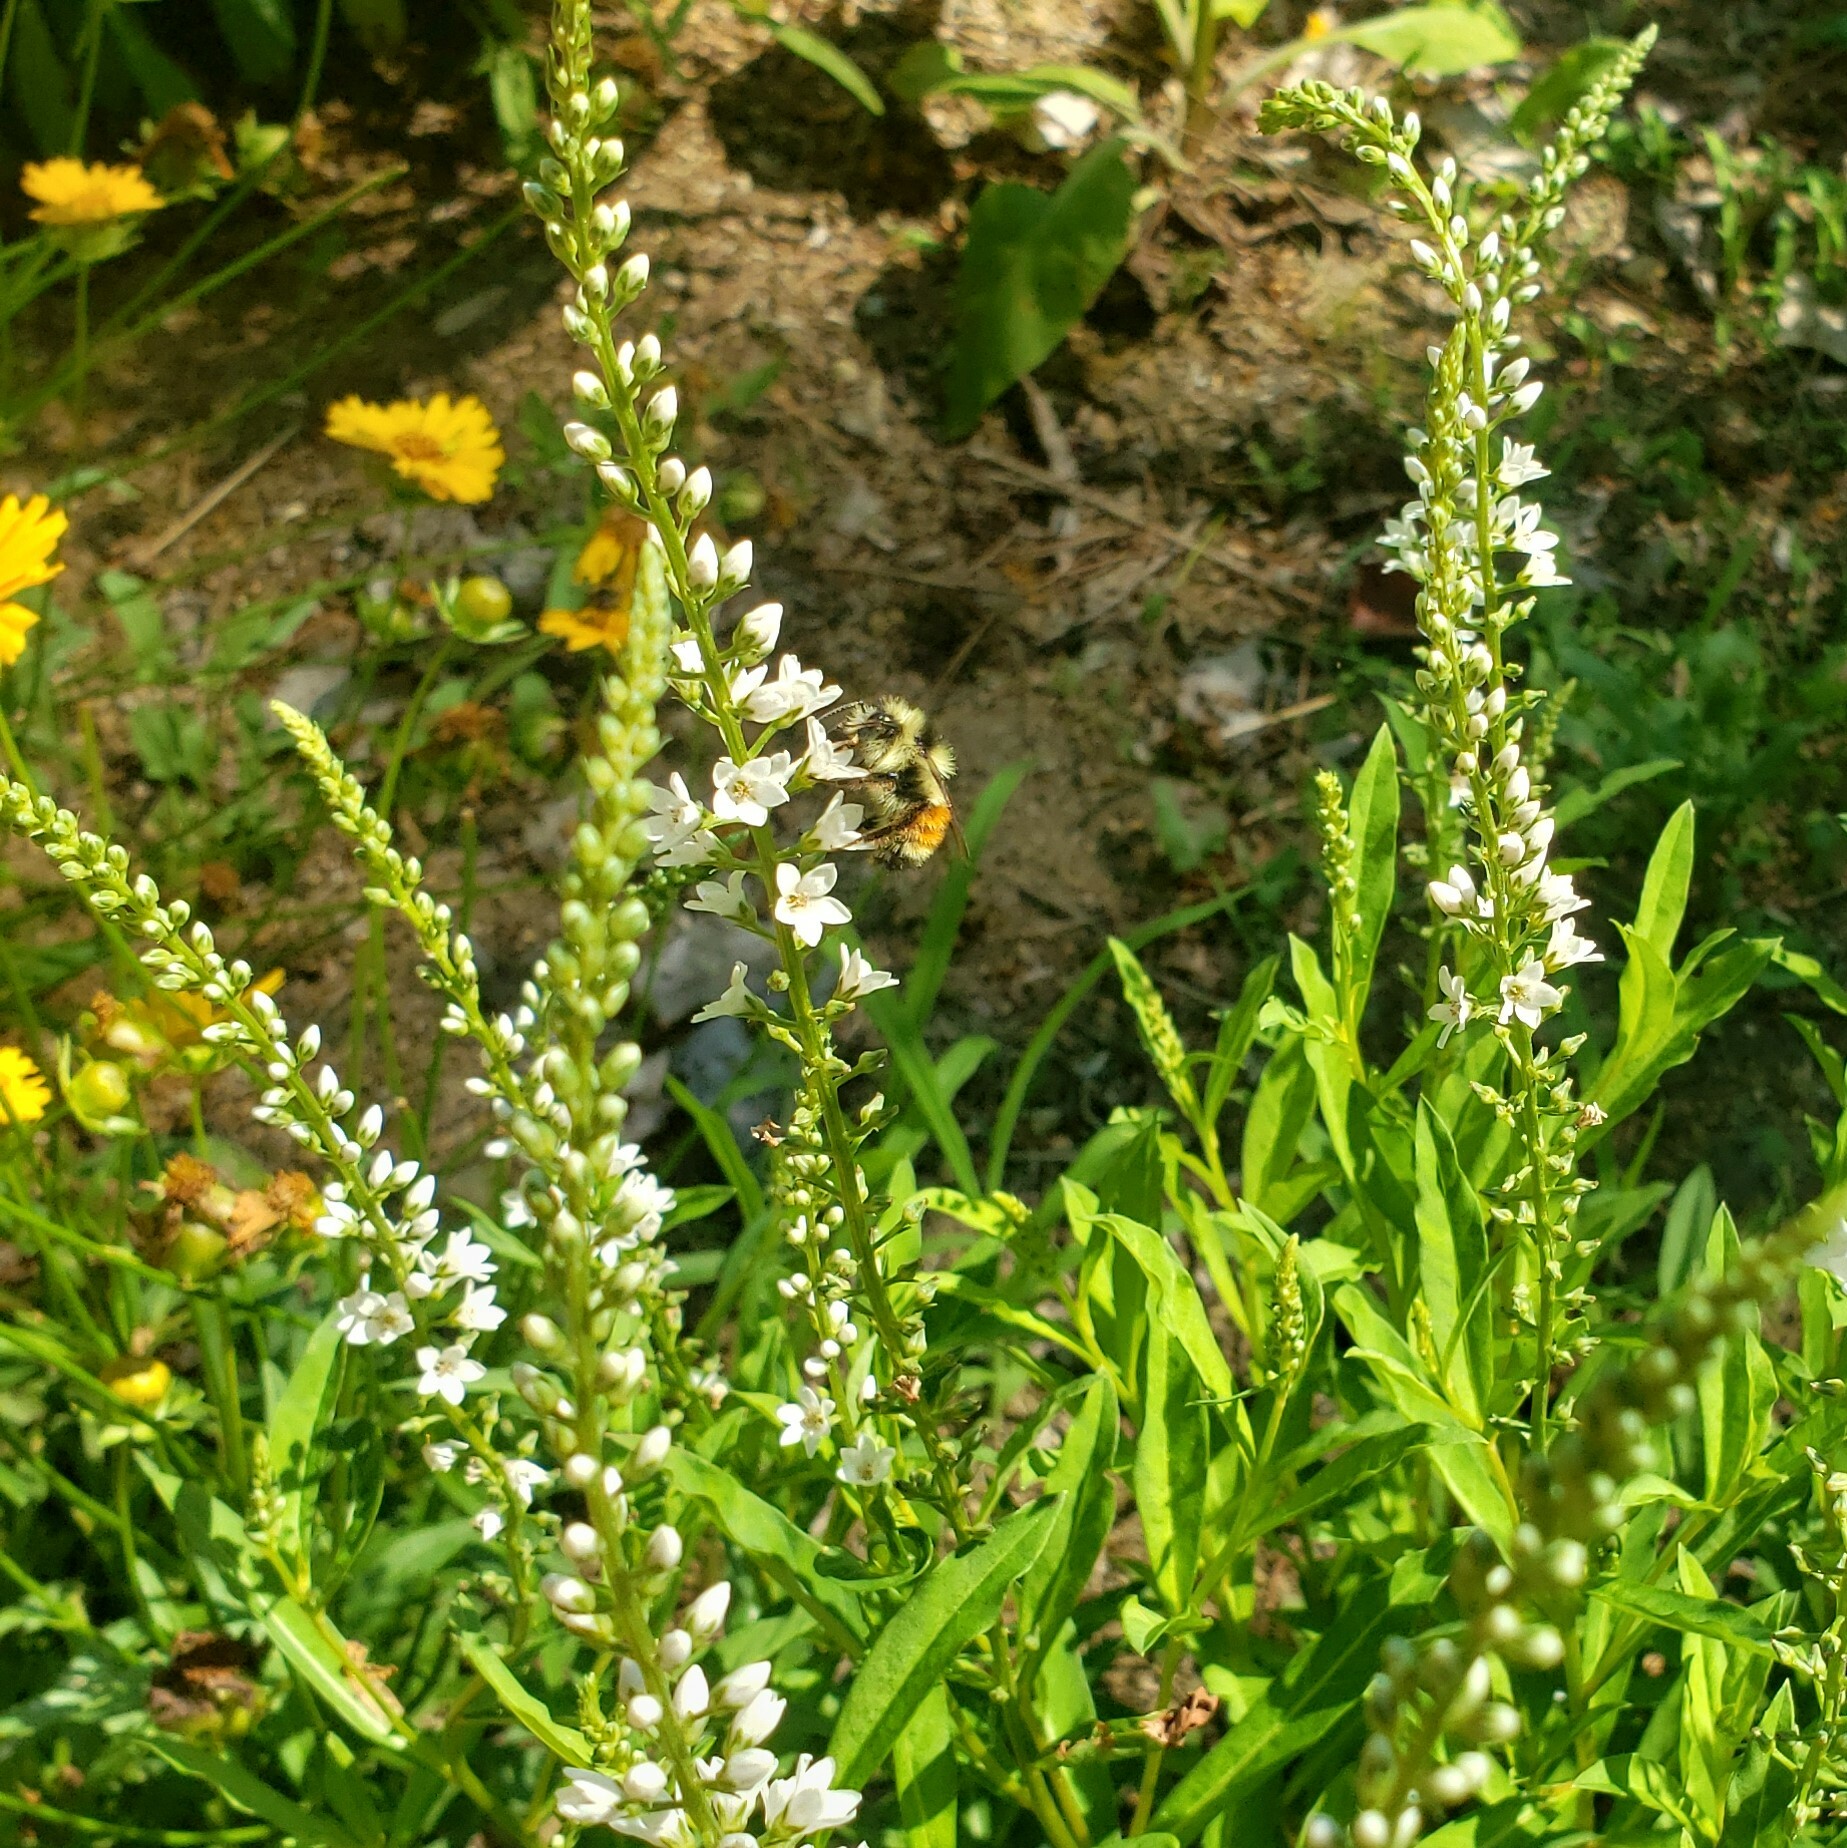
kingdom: Animalia
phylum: Arthropoda
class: Insecta
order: Hymenoptera
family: Apidae
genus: Bombus
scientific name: Bombus ternarius
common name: Tri-colored bumble bee
